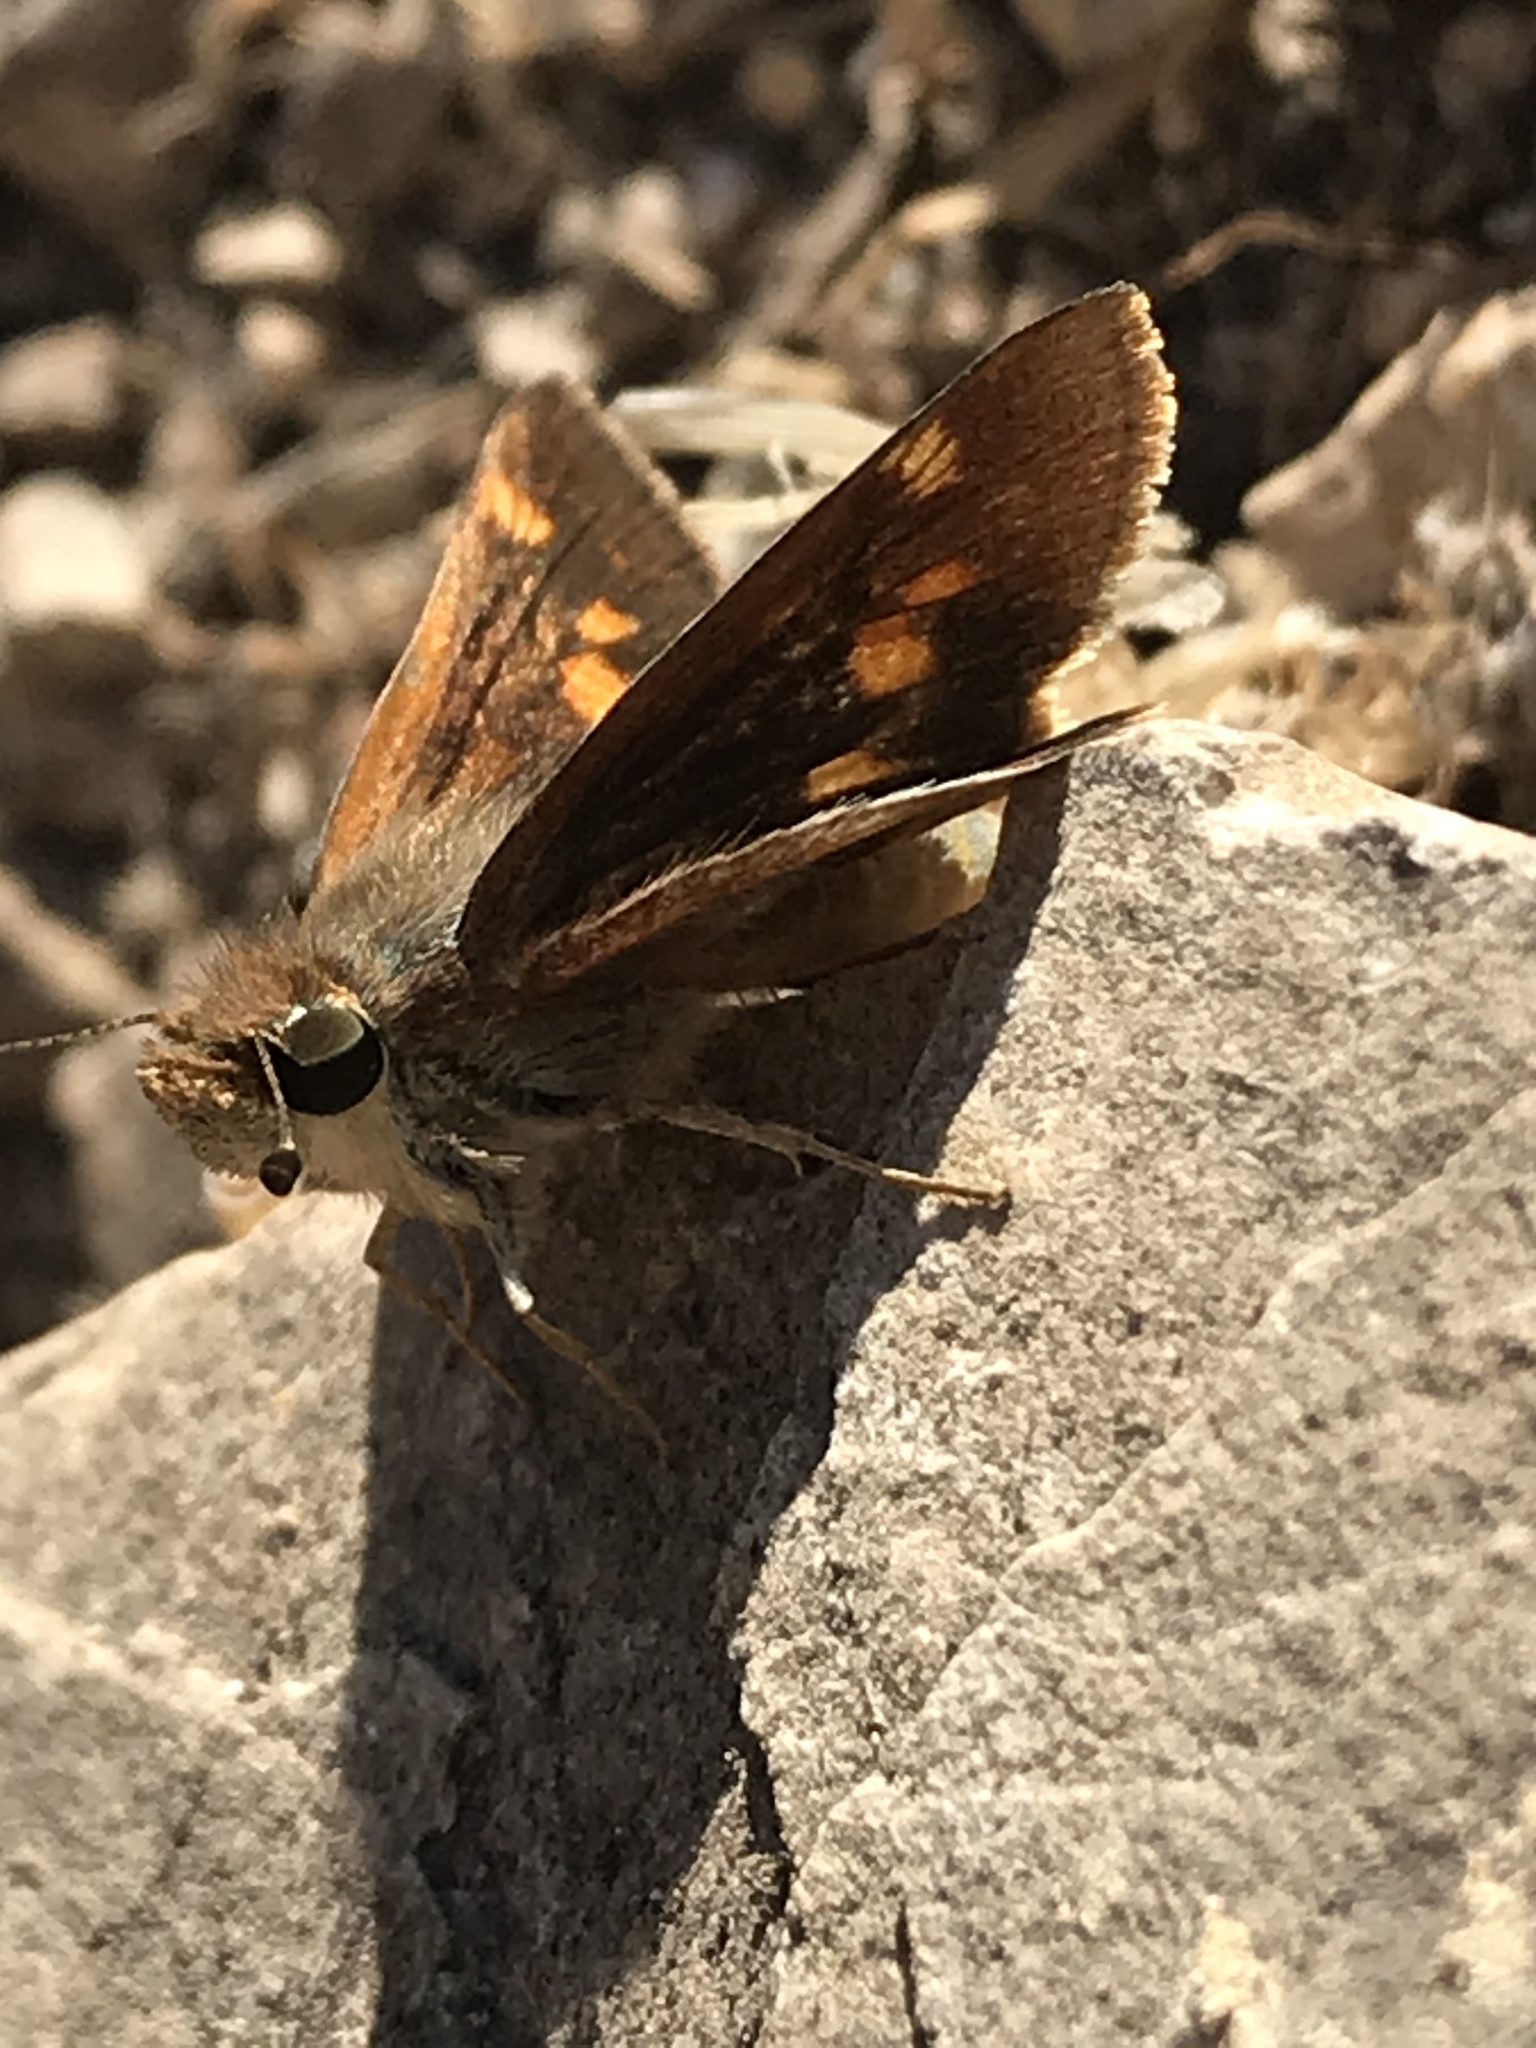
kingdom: Animalia
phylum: Arthropoda
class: Insecta
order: Lepidoptera
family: Hesperiidae
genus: Lon
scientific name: Lon melane
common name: Umber skipper
